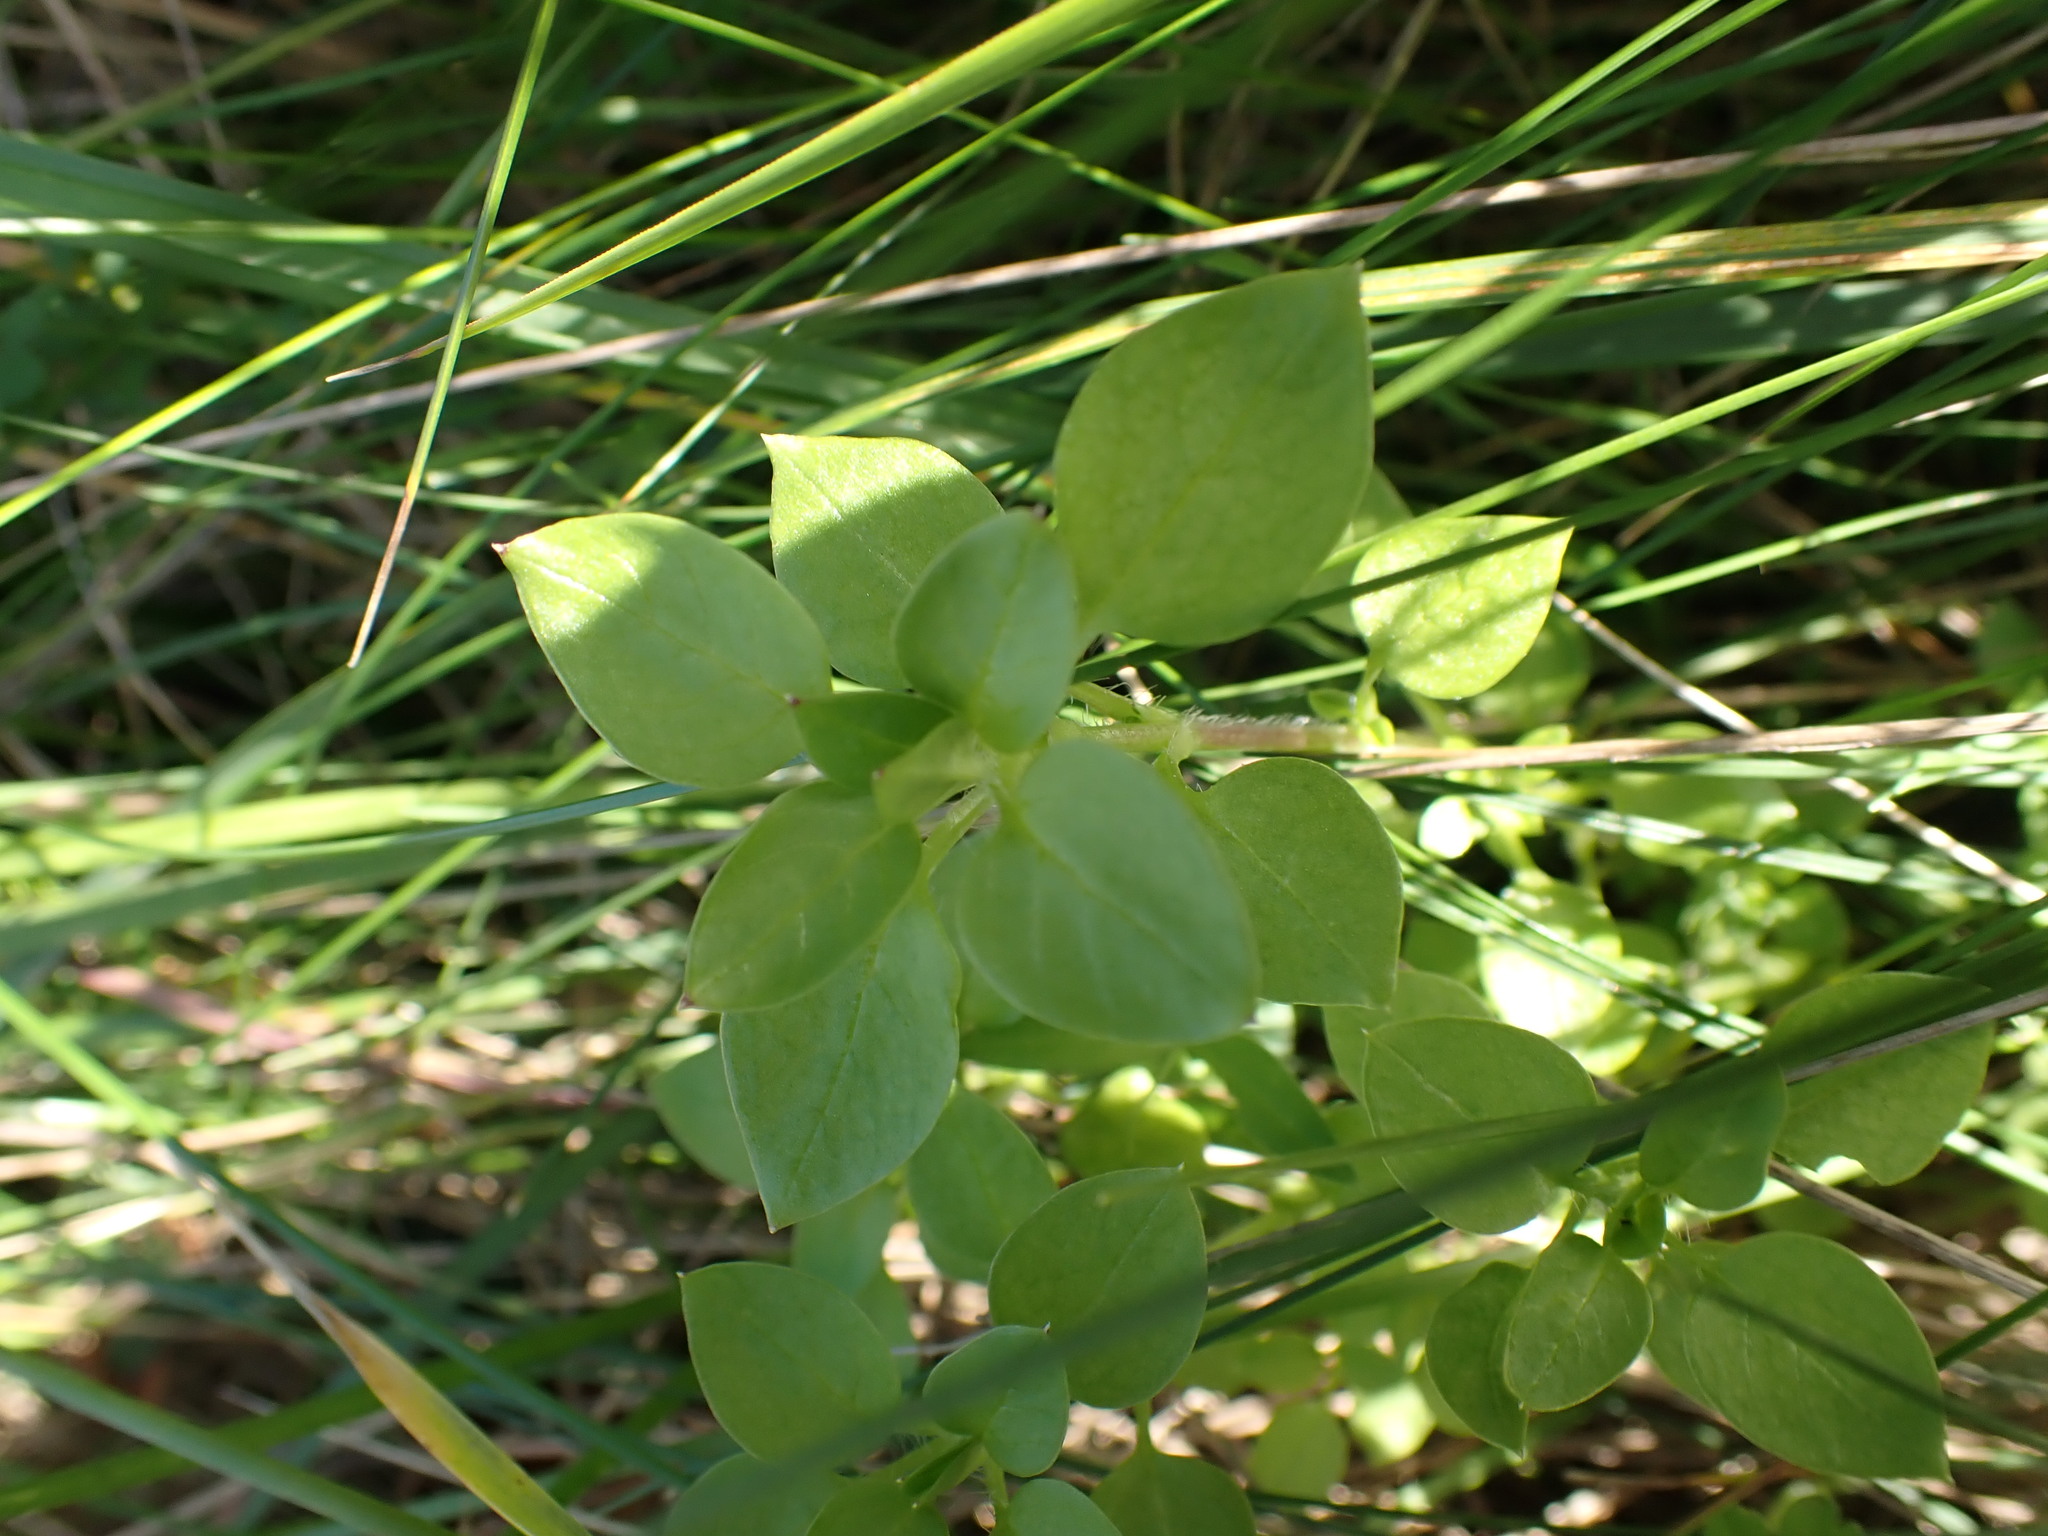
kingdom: Plantae
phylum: Tracheophyta
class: Magnoliopsida
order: Caryophyllales
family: Caryophyllaceae
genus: Stellaria
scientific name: Stellaria media
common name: Common chickweed
